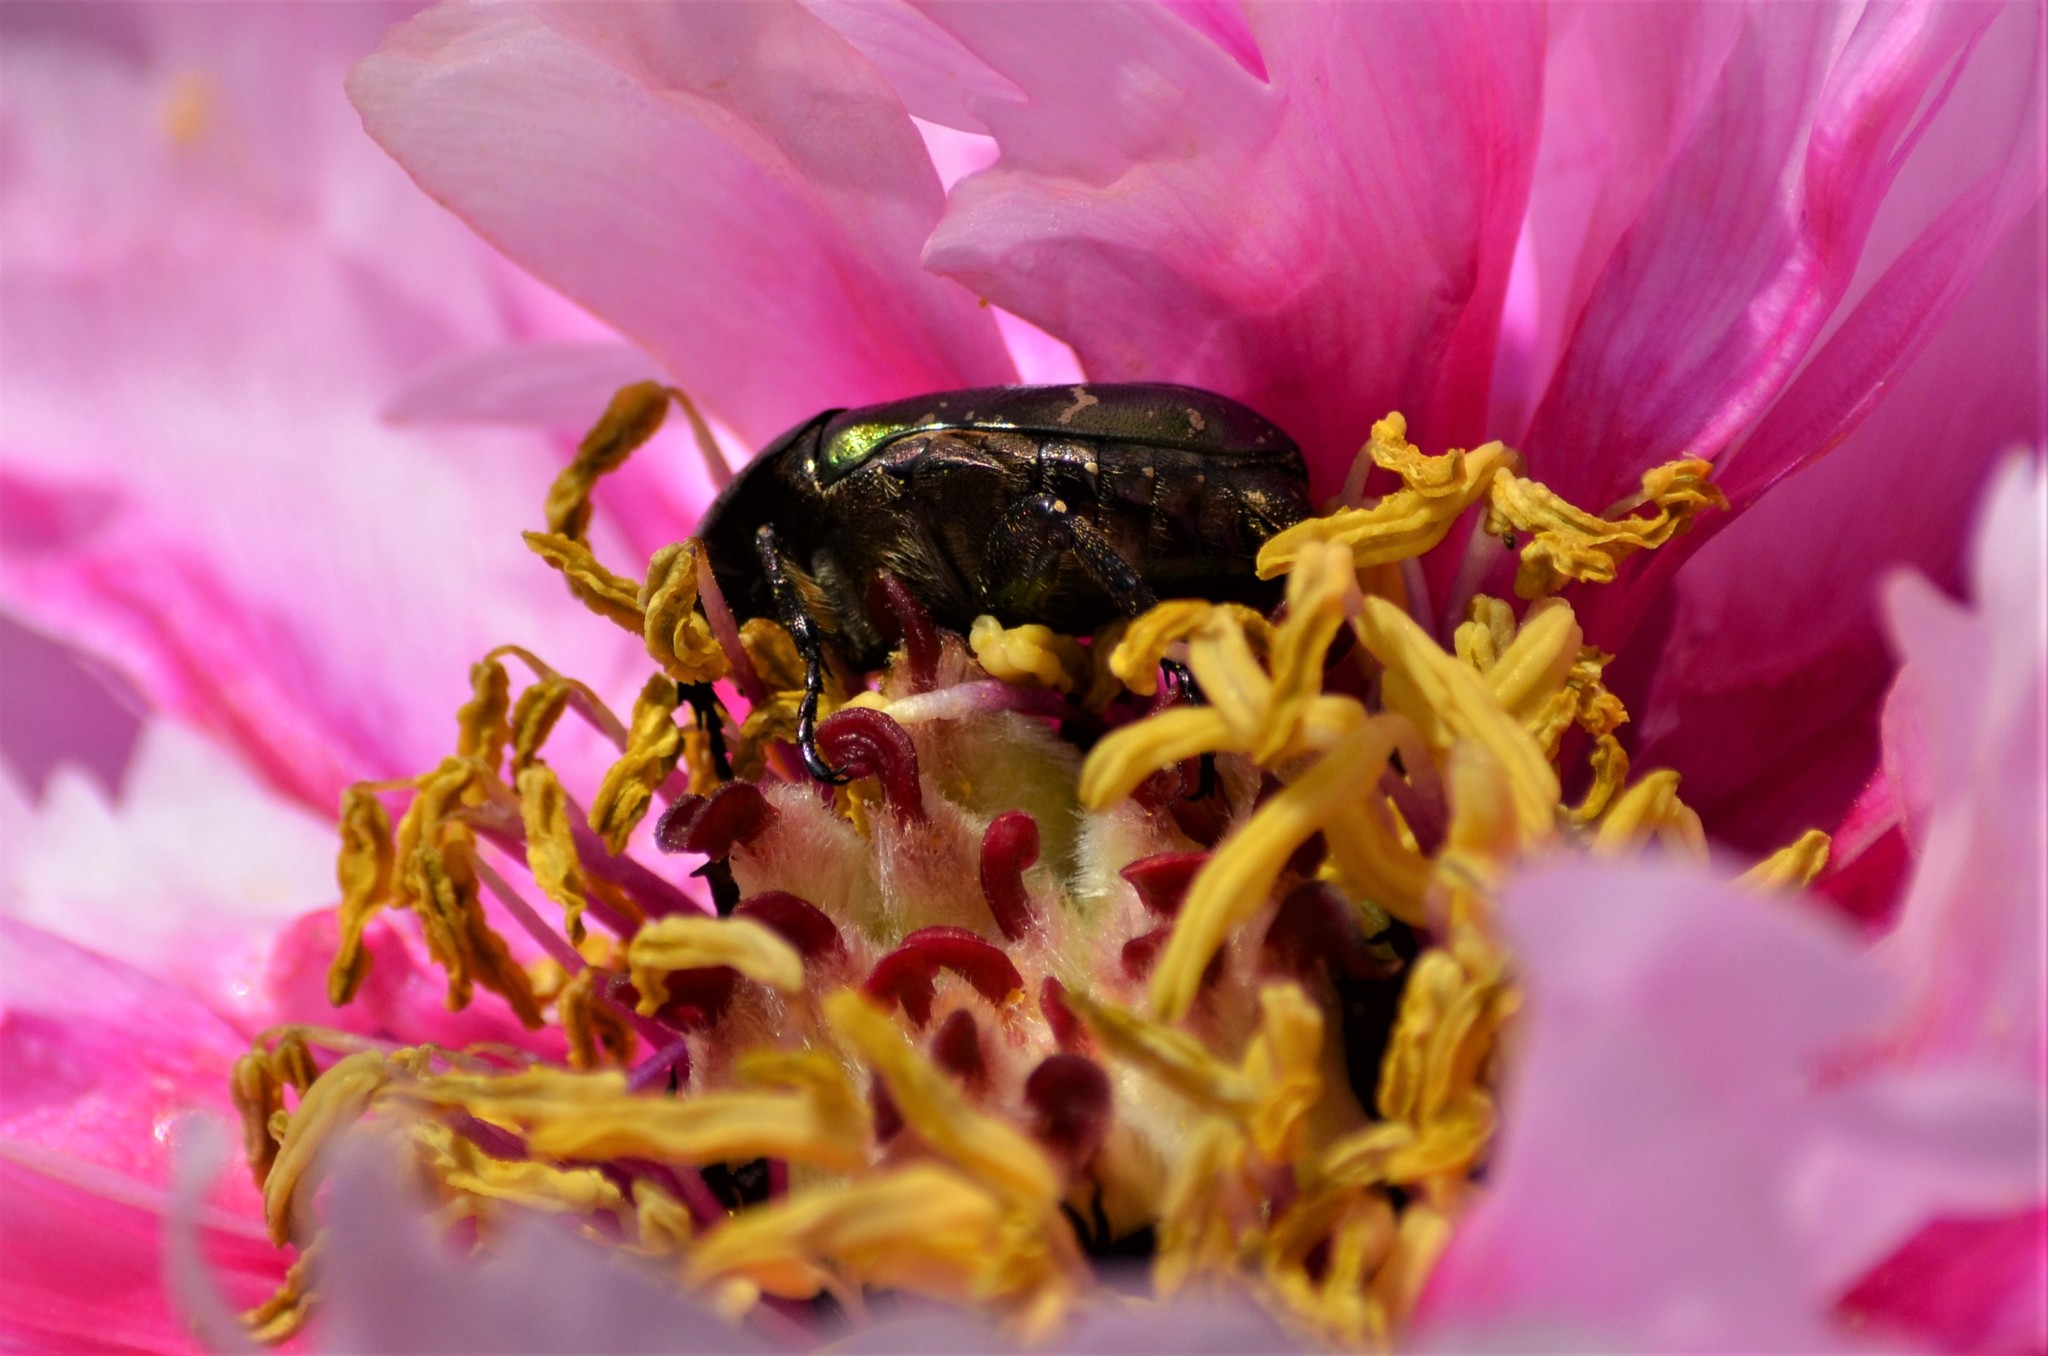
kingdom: Animalia
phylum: Arthropoda
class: Insecta
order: Coleoptera
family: Scarabaeidae
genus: Protaetia
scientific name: Protaetia cuprea
